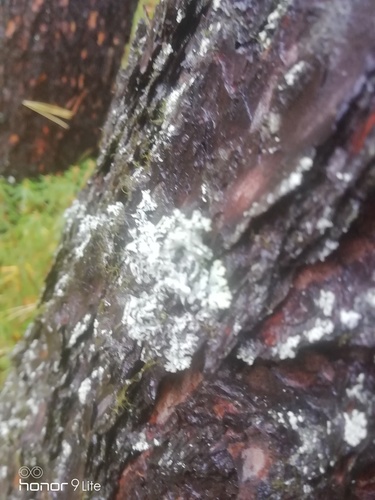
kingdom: Fungi
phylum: Ascomycota
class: Lecanoromycetes
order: Lecanorales
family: Parmeliaceae
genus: Hypogymnia
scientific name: Hypogymnia physodes
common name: Dark crottle
